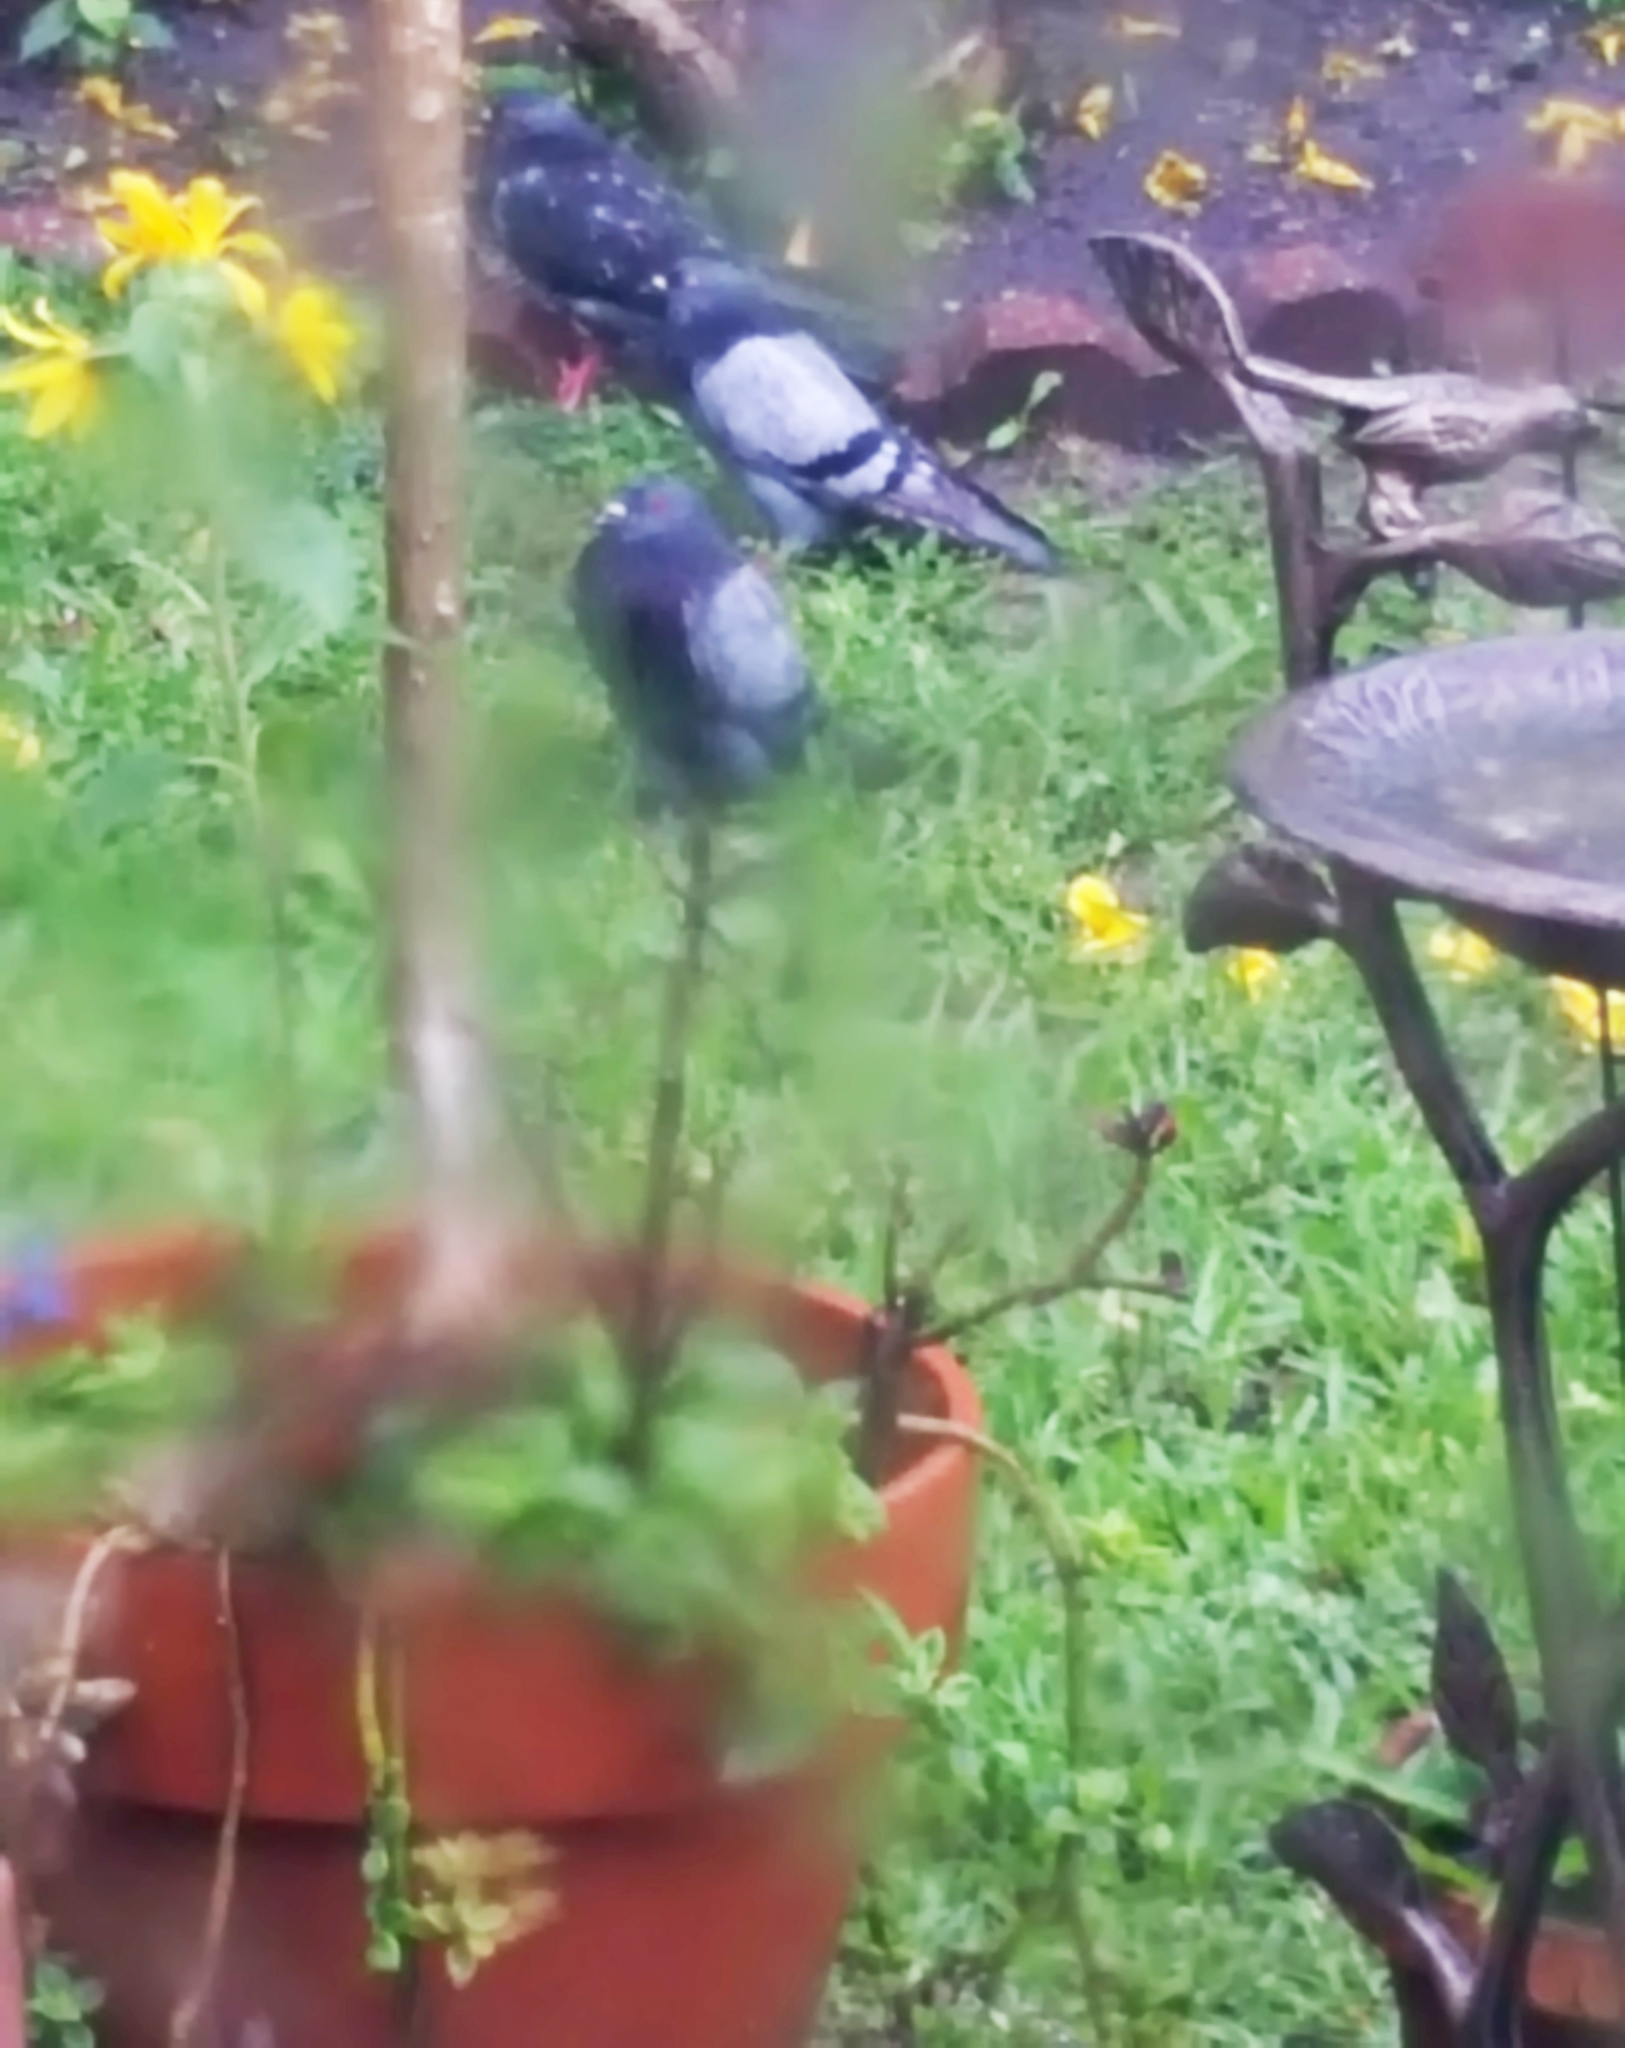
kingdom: Animalia
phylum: Chordata
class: Aves
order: Columbiformes
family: Columbidae
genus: Columba
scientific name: Columba livia
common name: Rock pigeon
